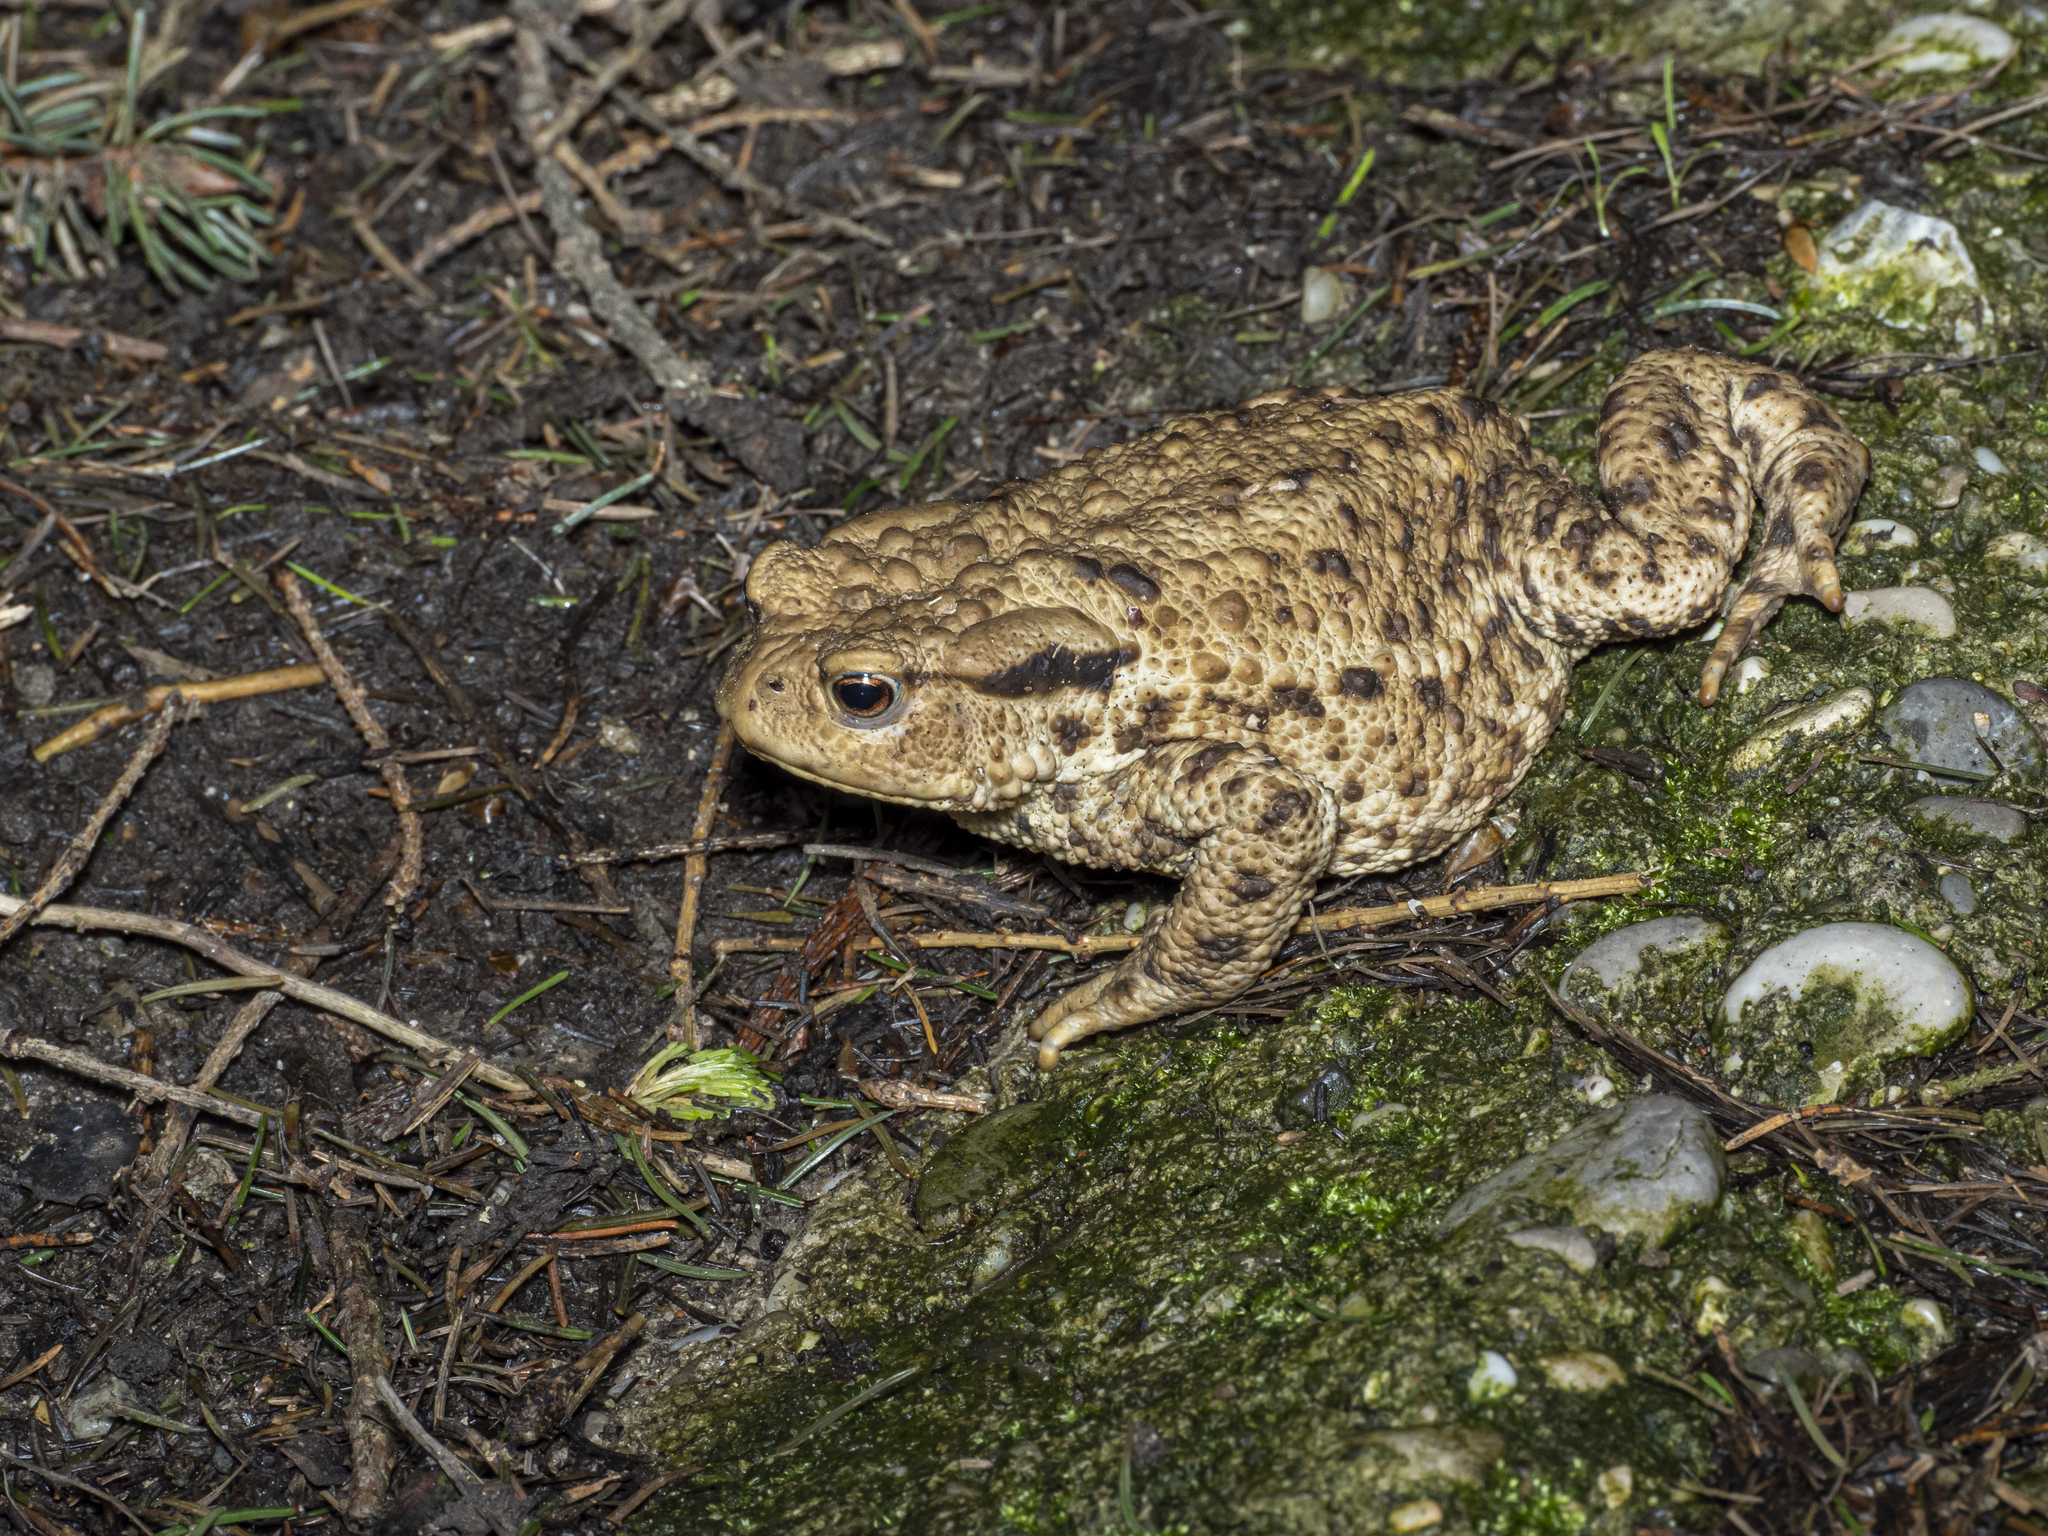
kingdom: Animalia
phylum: Chordata
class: Amphibia
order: Anura
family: Bufonidae
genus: Bufo
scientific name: Bufo bufo
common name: Common toad
